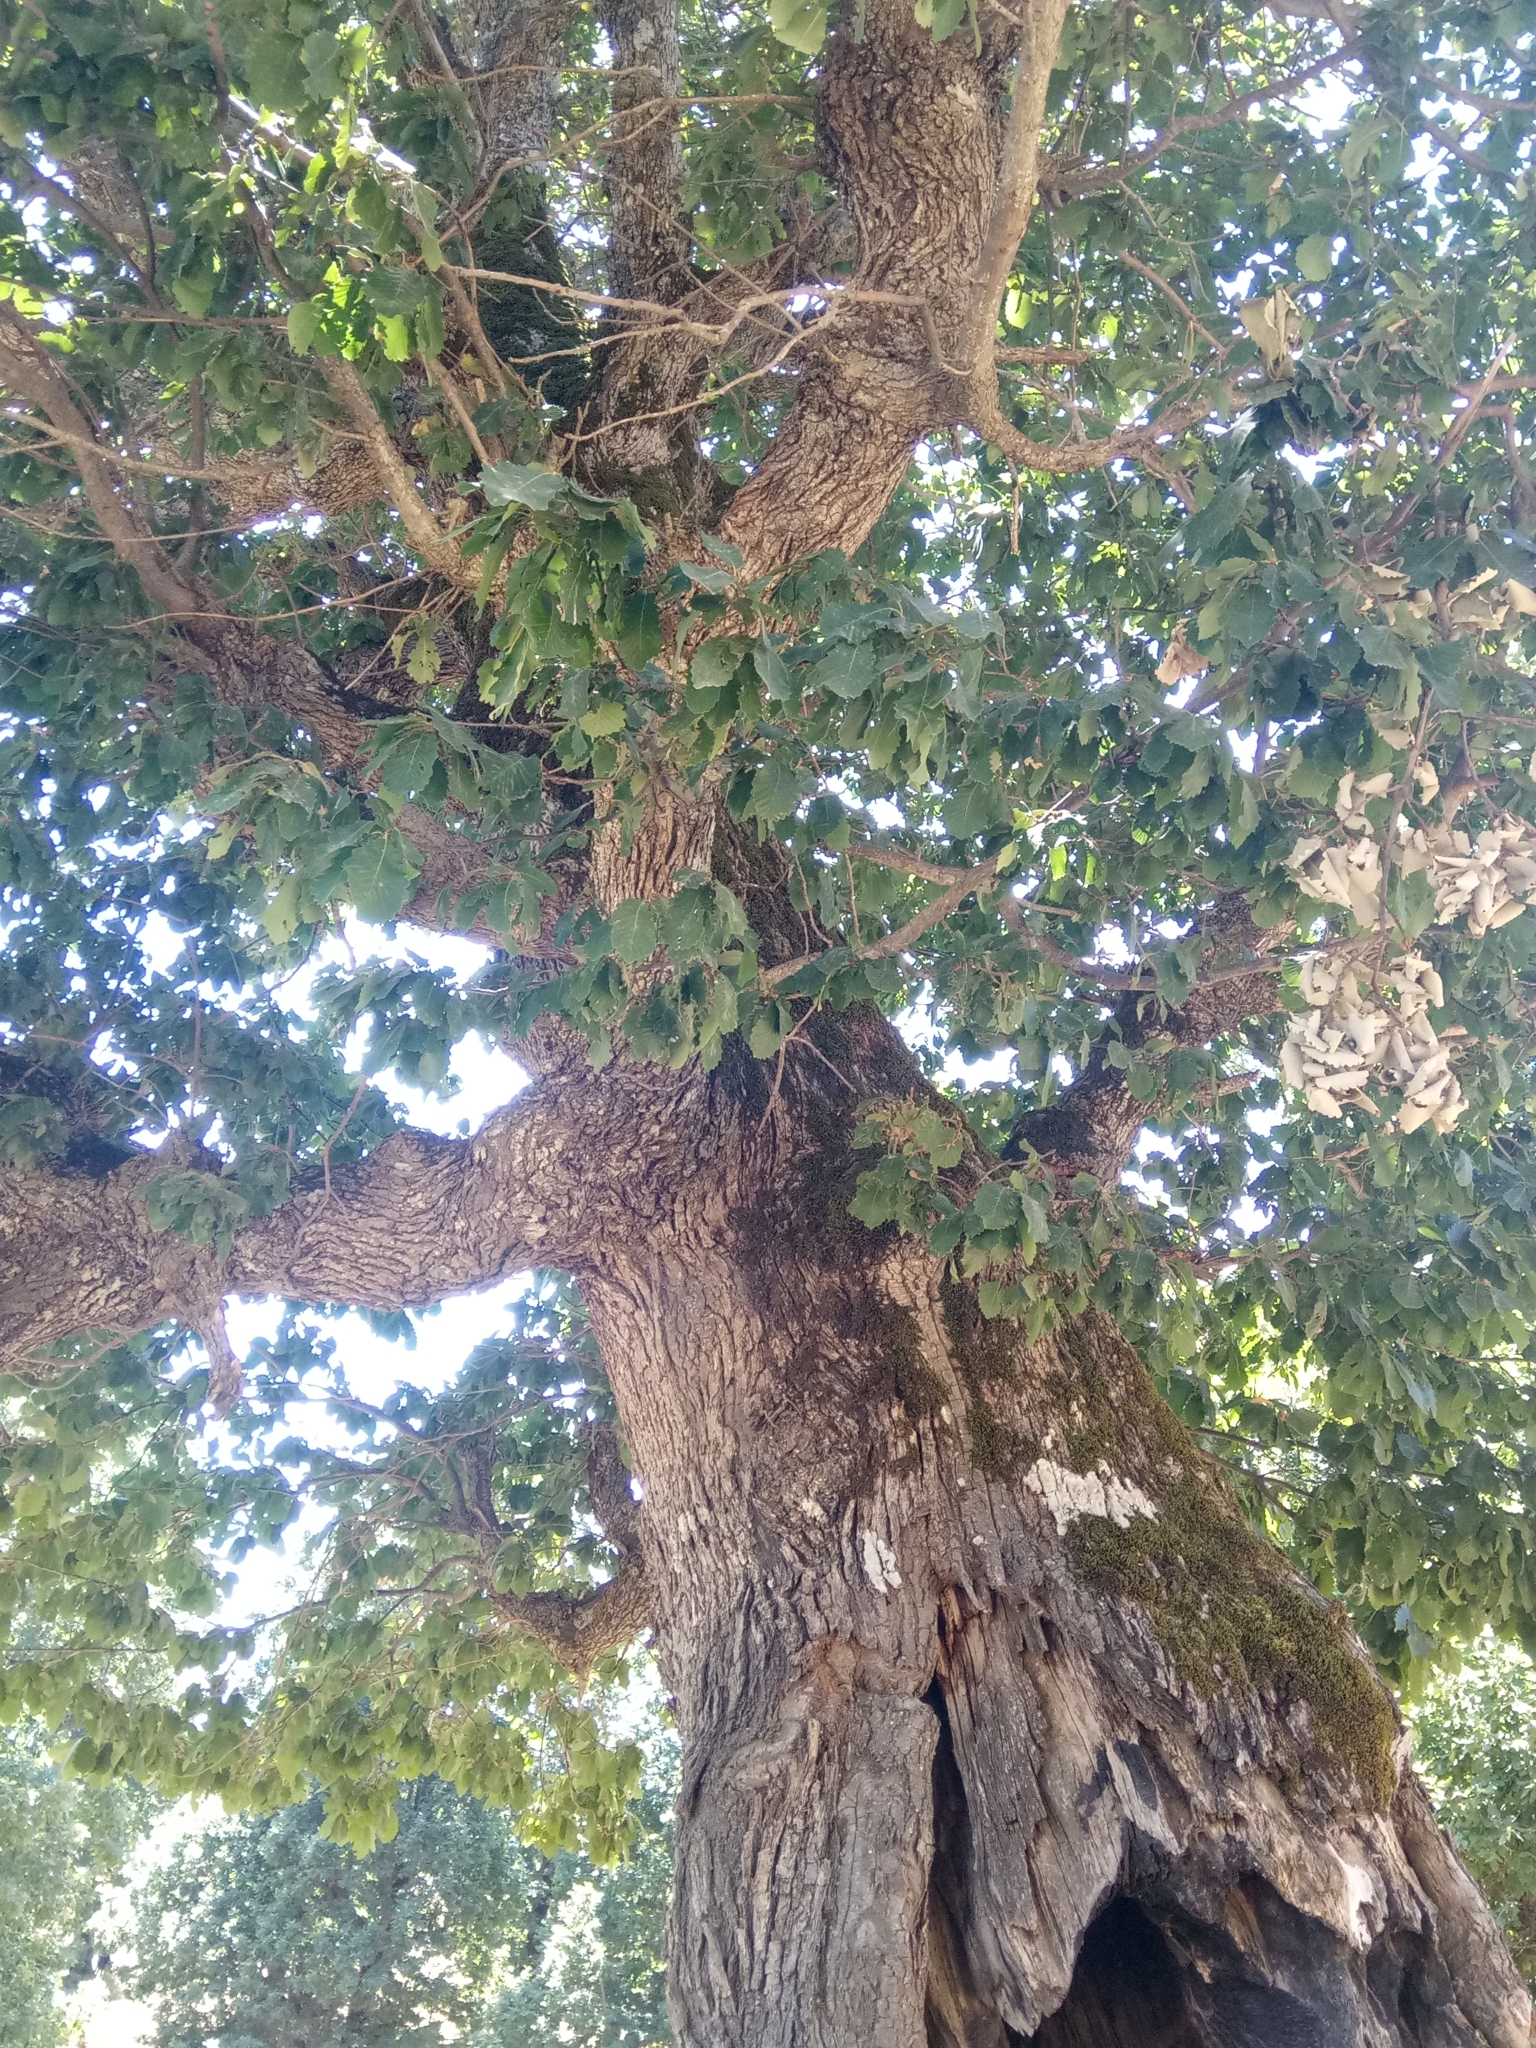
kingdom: Plantae
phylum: Tracheophyta
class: Magnoliopsida
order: Fagales
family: Fagaceae
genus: Quercus
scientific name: Quercus canariensis
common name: Algerian oak
